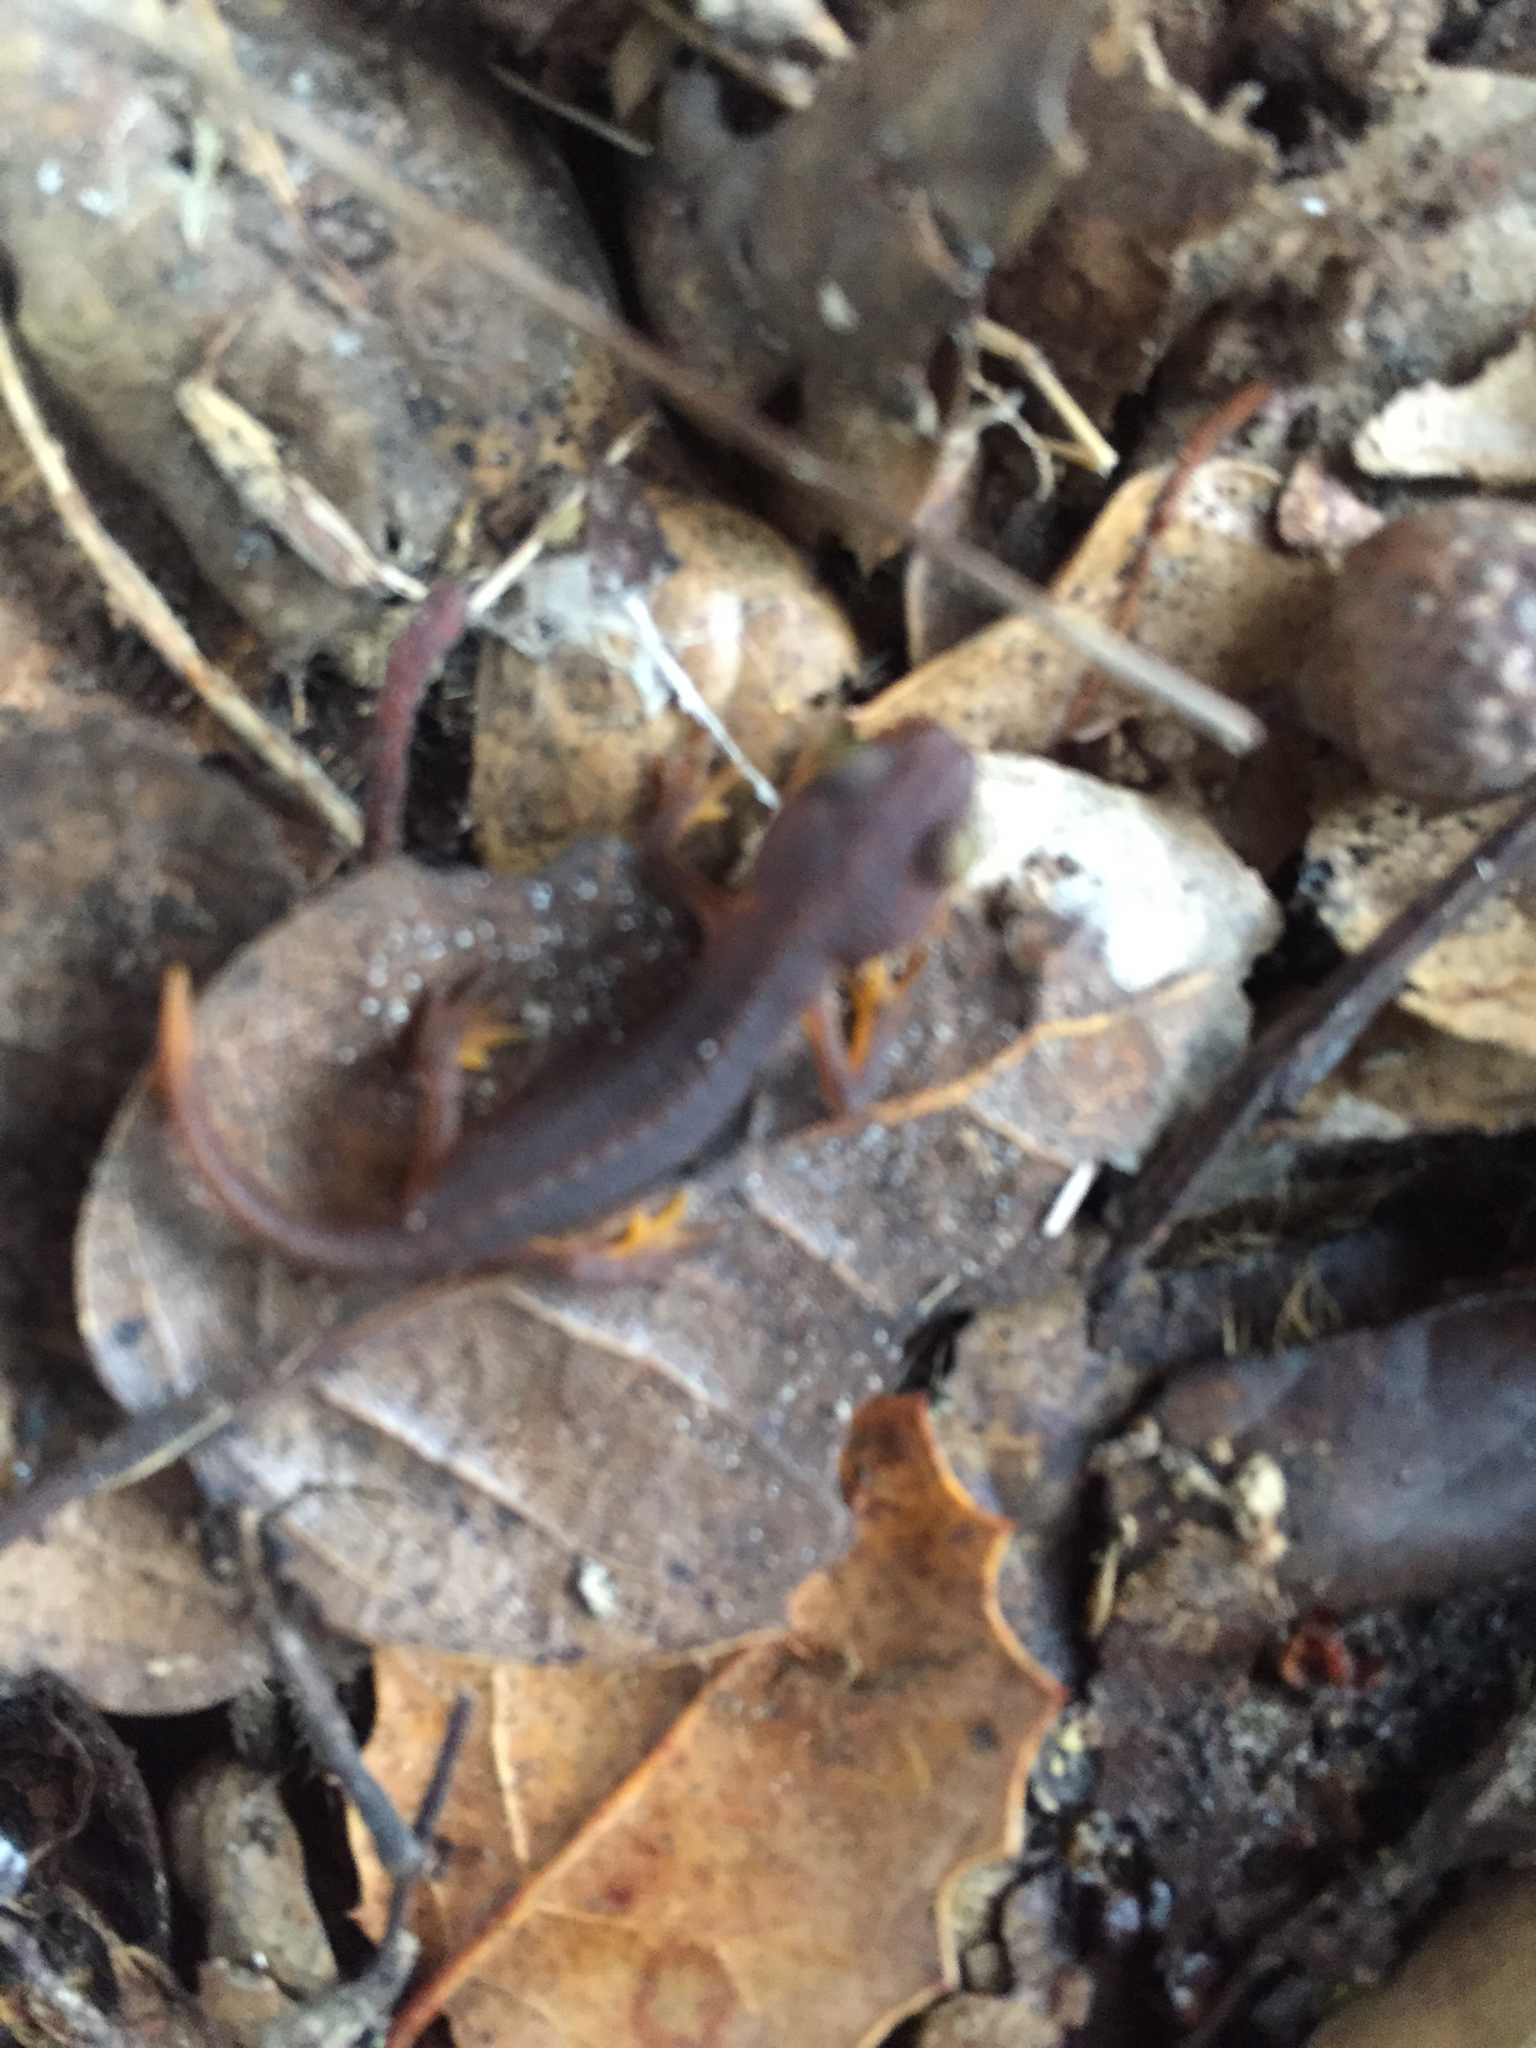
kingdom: Animalia
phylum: Chordata
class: Amphibia
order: Caudata
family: Salamandridae
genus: Taricha
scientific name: Taricha torosa
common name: California newt
